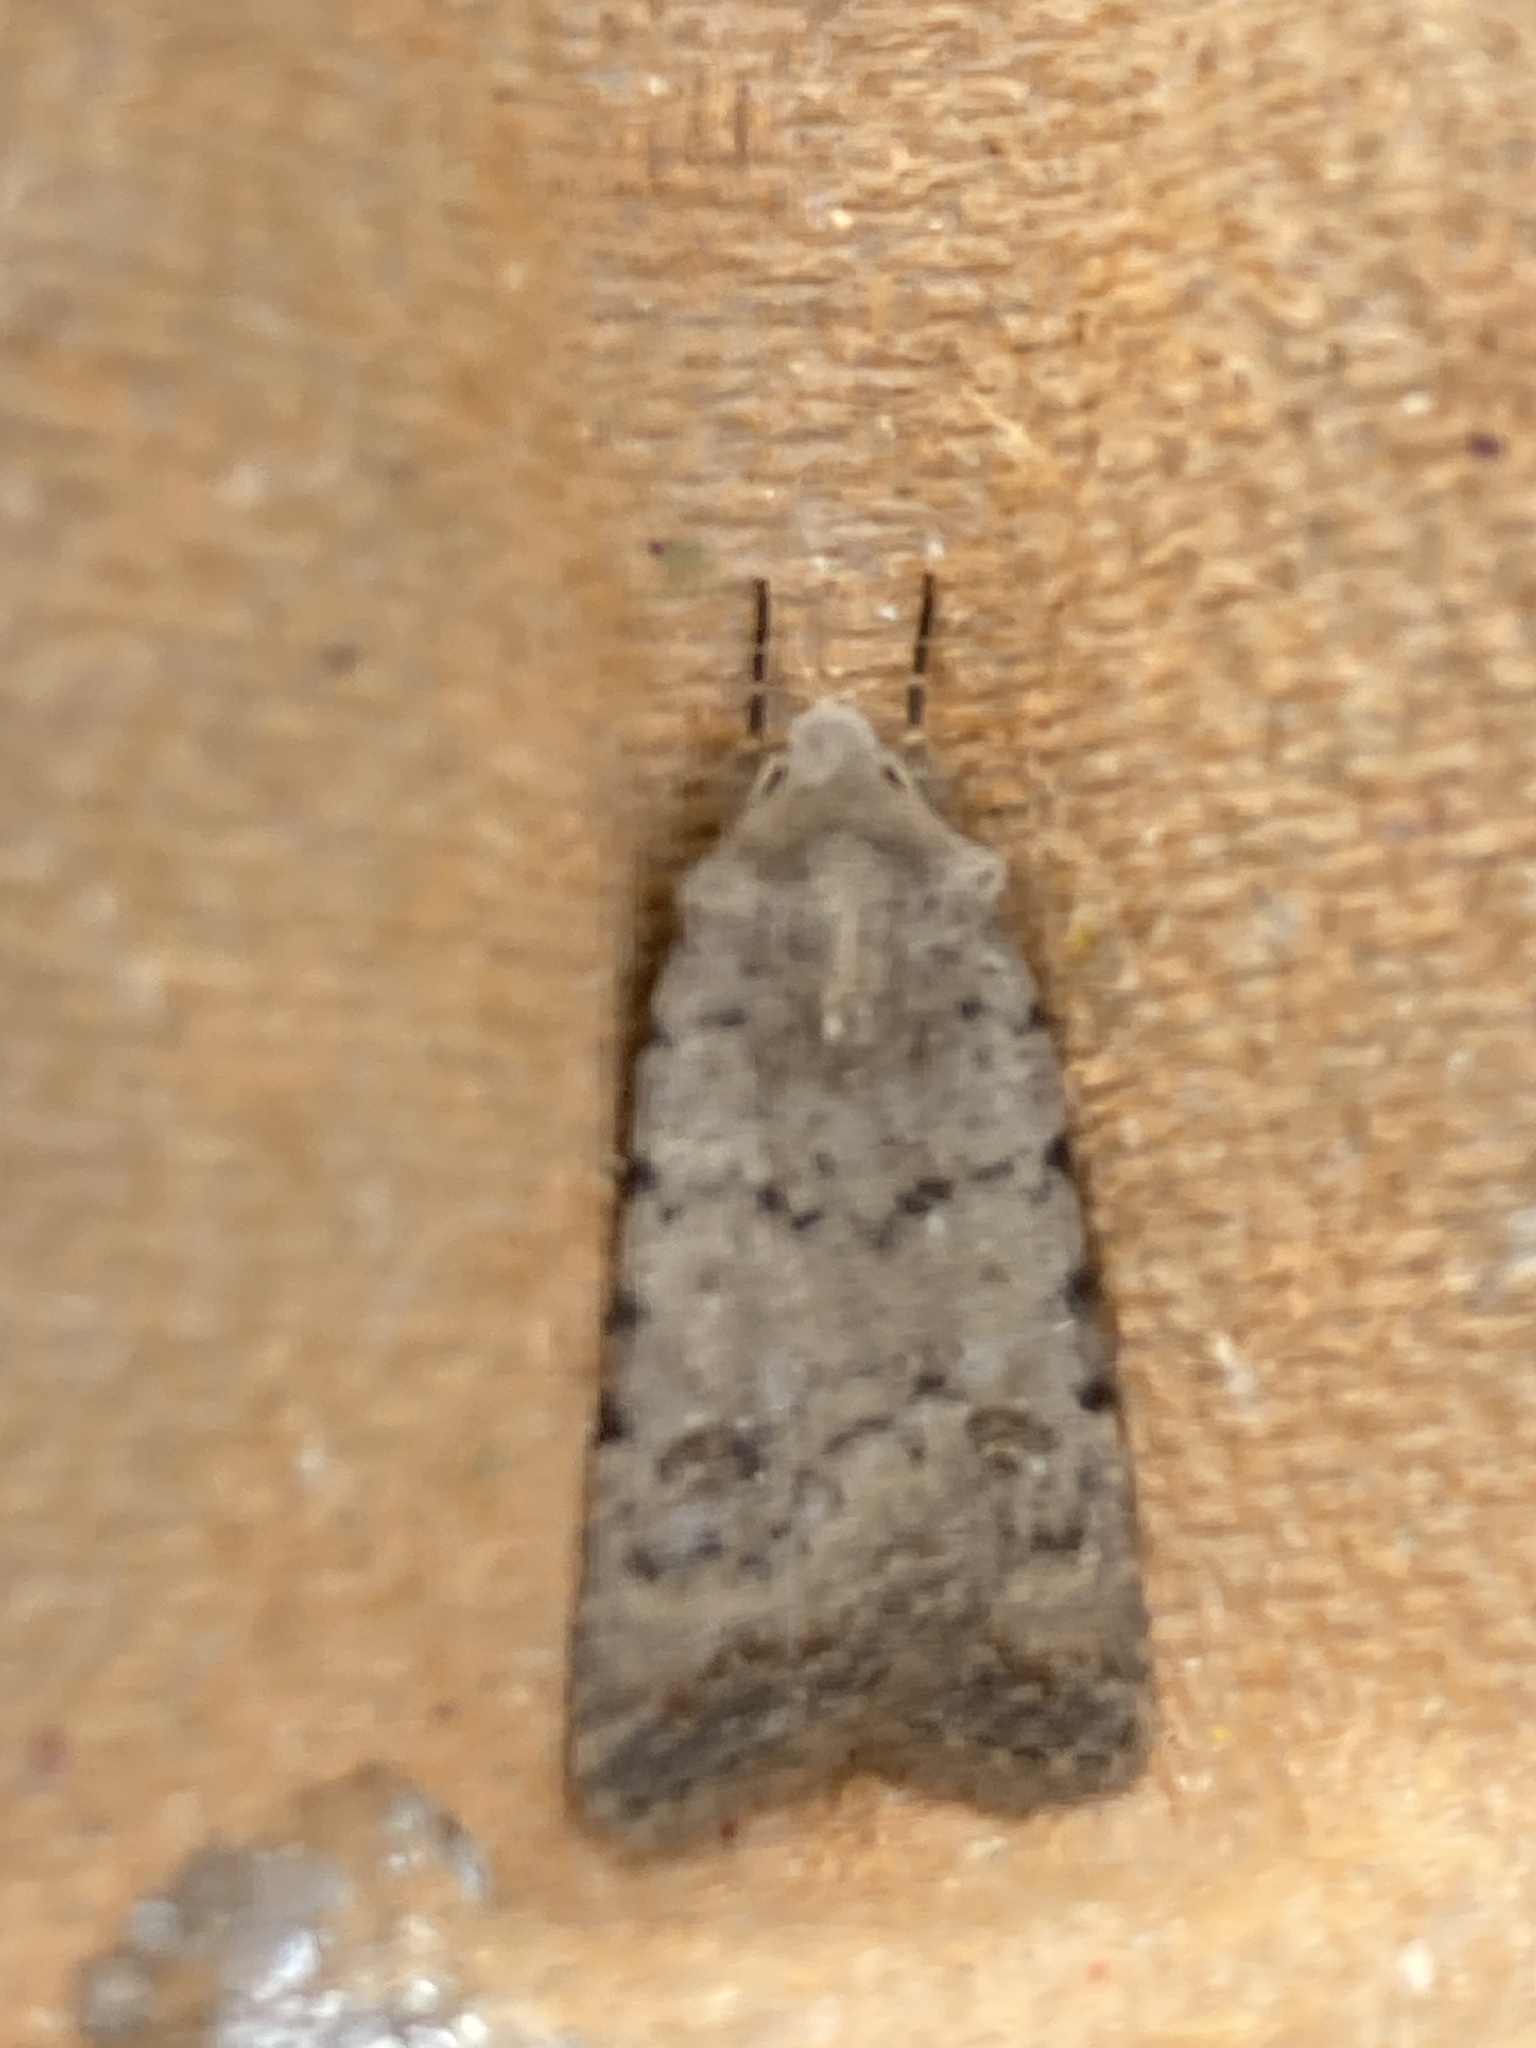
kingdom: Animalia
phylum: Arthropoda
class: Insecta
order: Lepidoptera
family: Noctuidae
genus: Caradrina
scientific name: Caradrina clavipalpis
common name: Pale mottled willow
